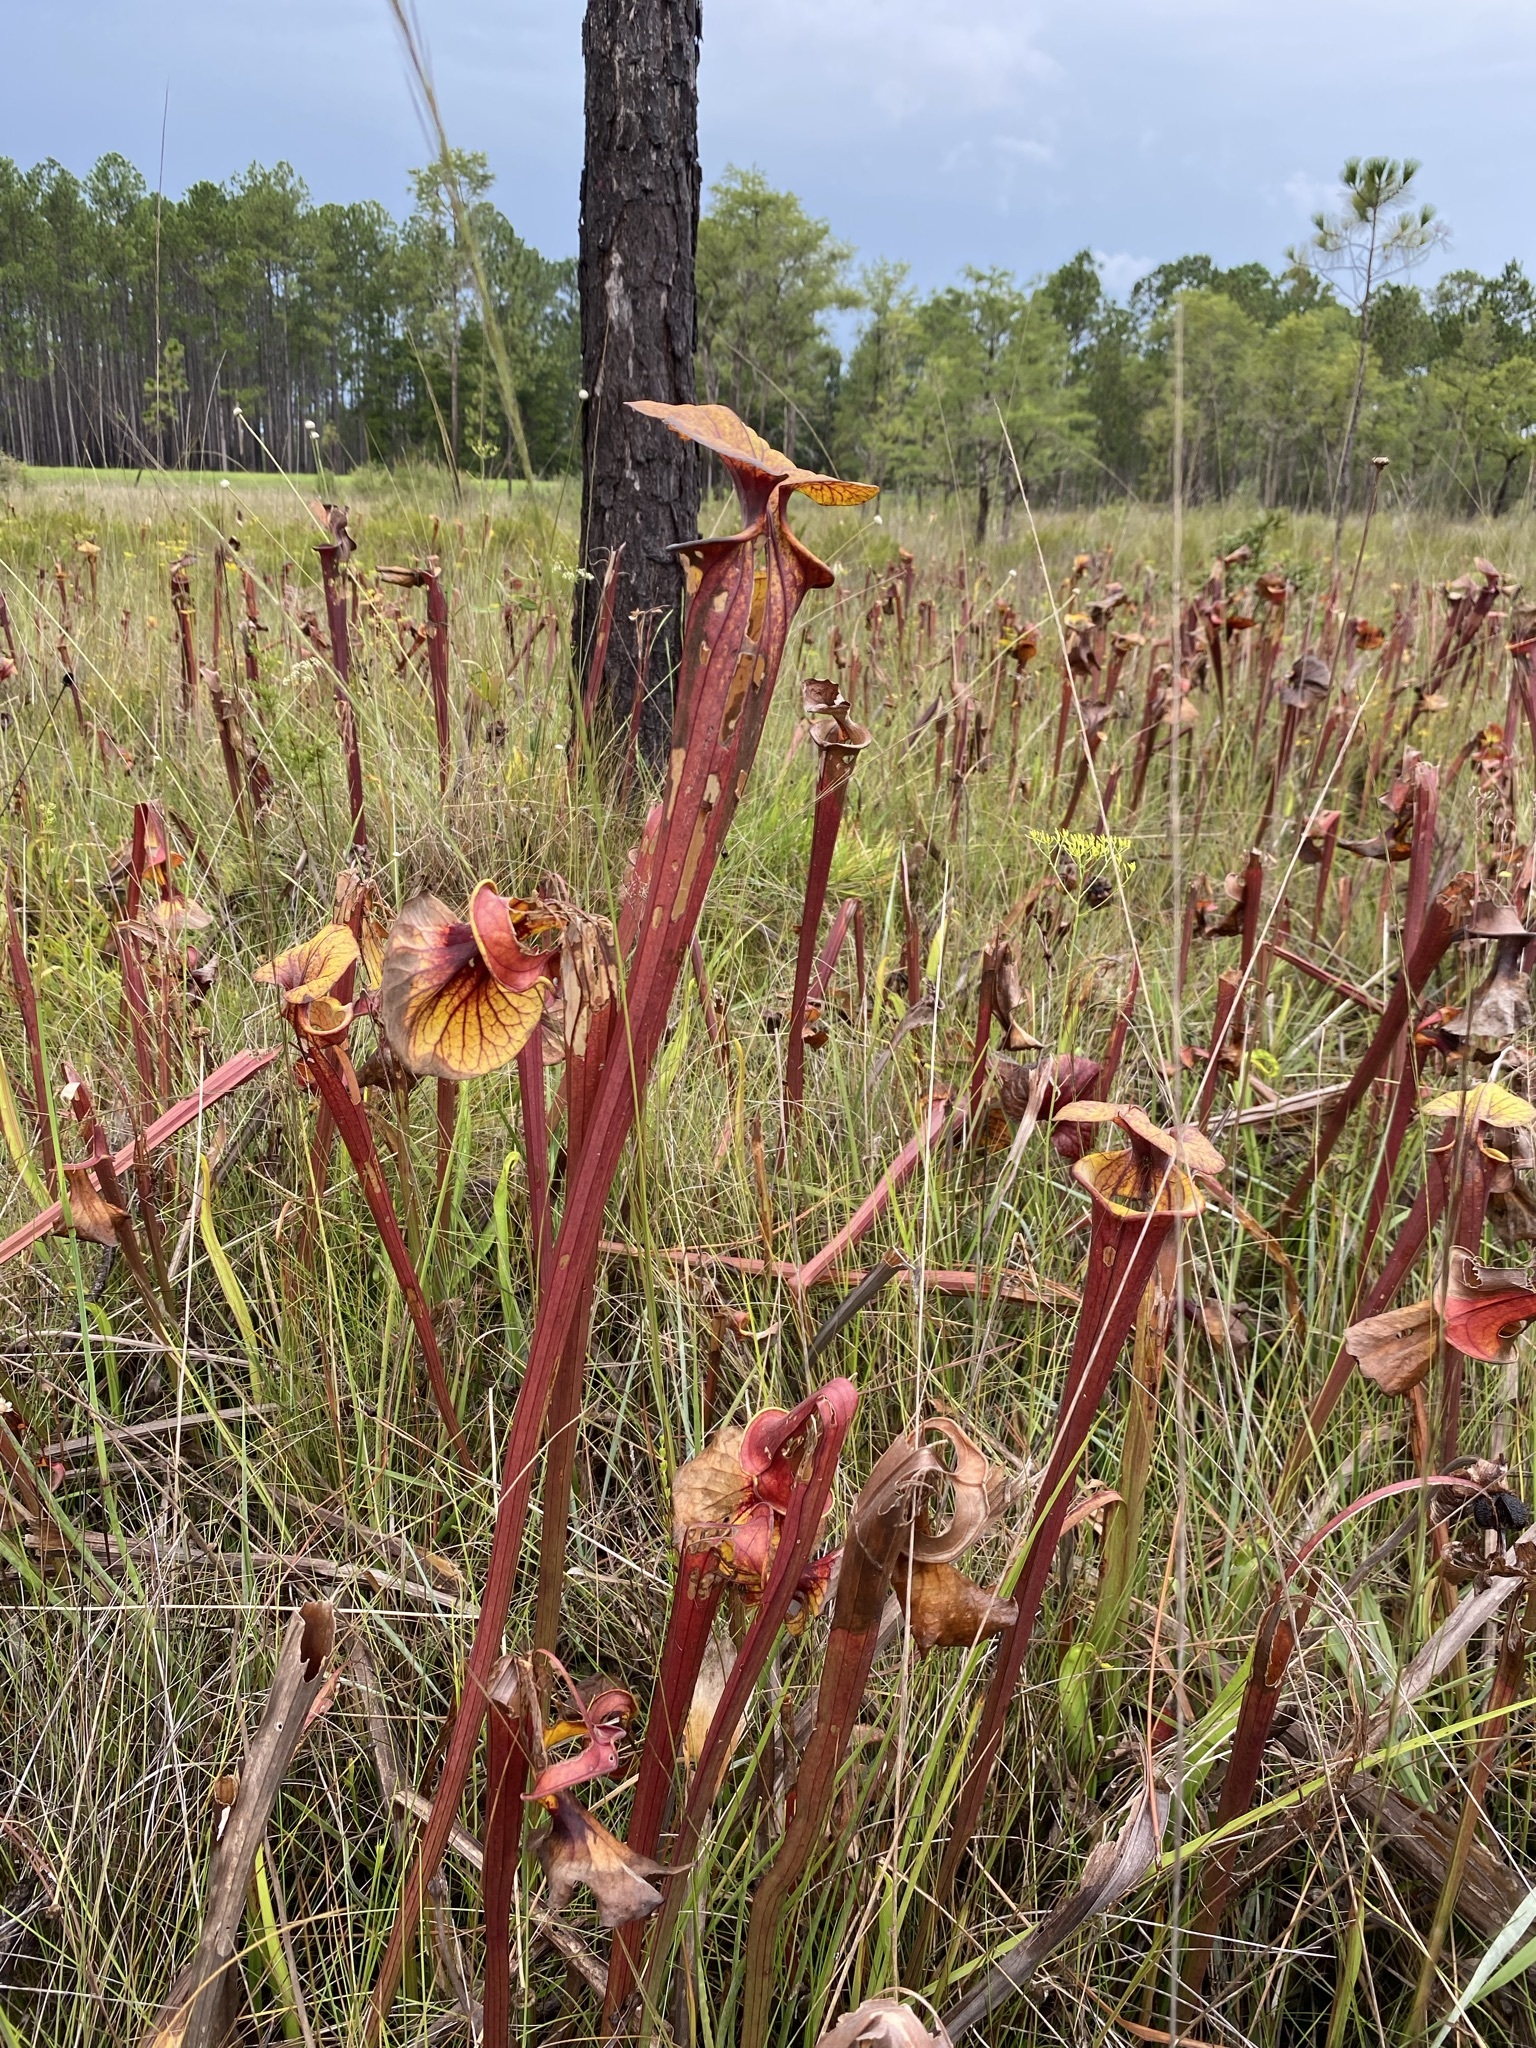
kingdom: Plantae
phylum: Tracheophyta
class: Magnoliopsida
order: Ericales
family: Sarraceniaceae
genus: Sarracenia
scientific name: Sarracenia flava
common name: Trumpets
